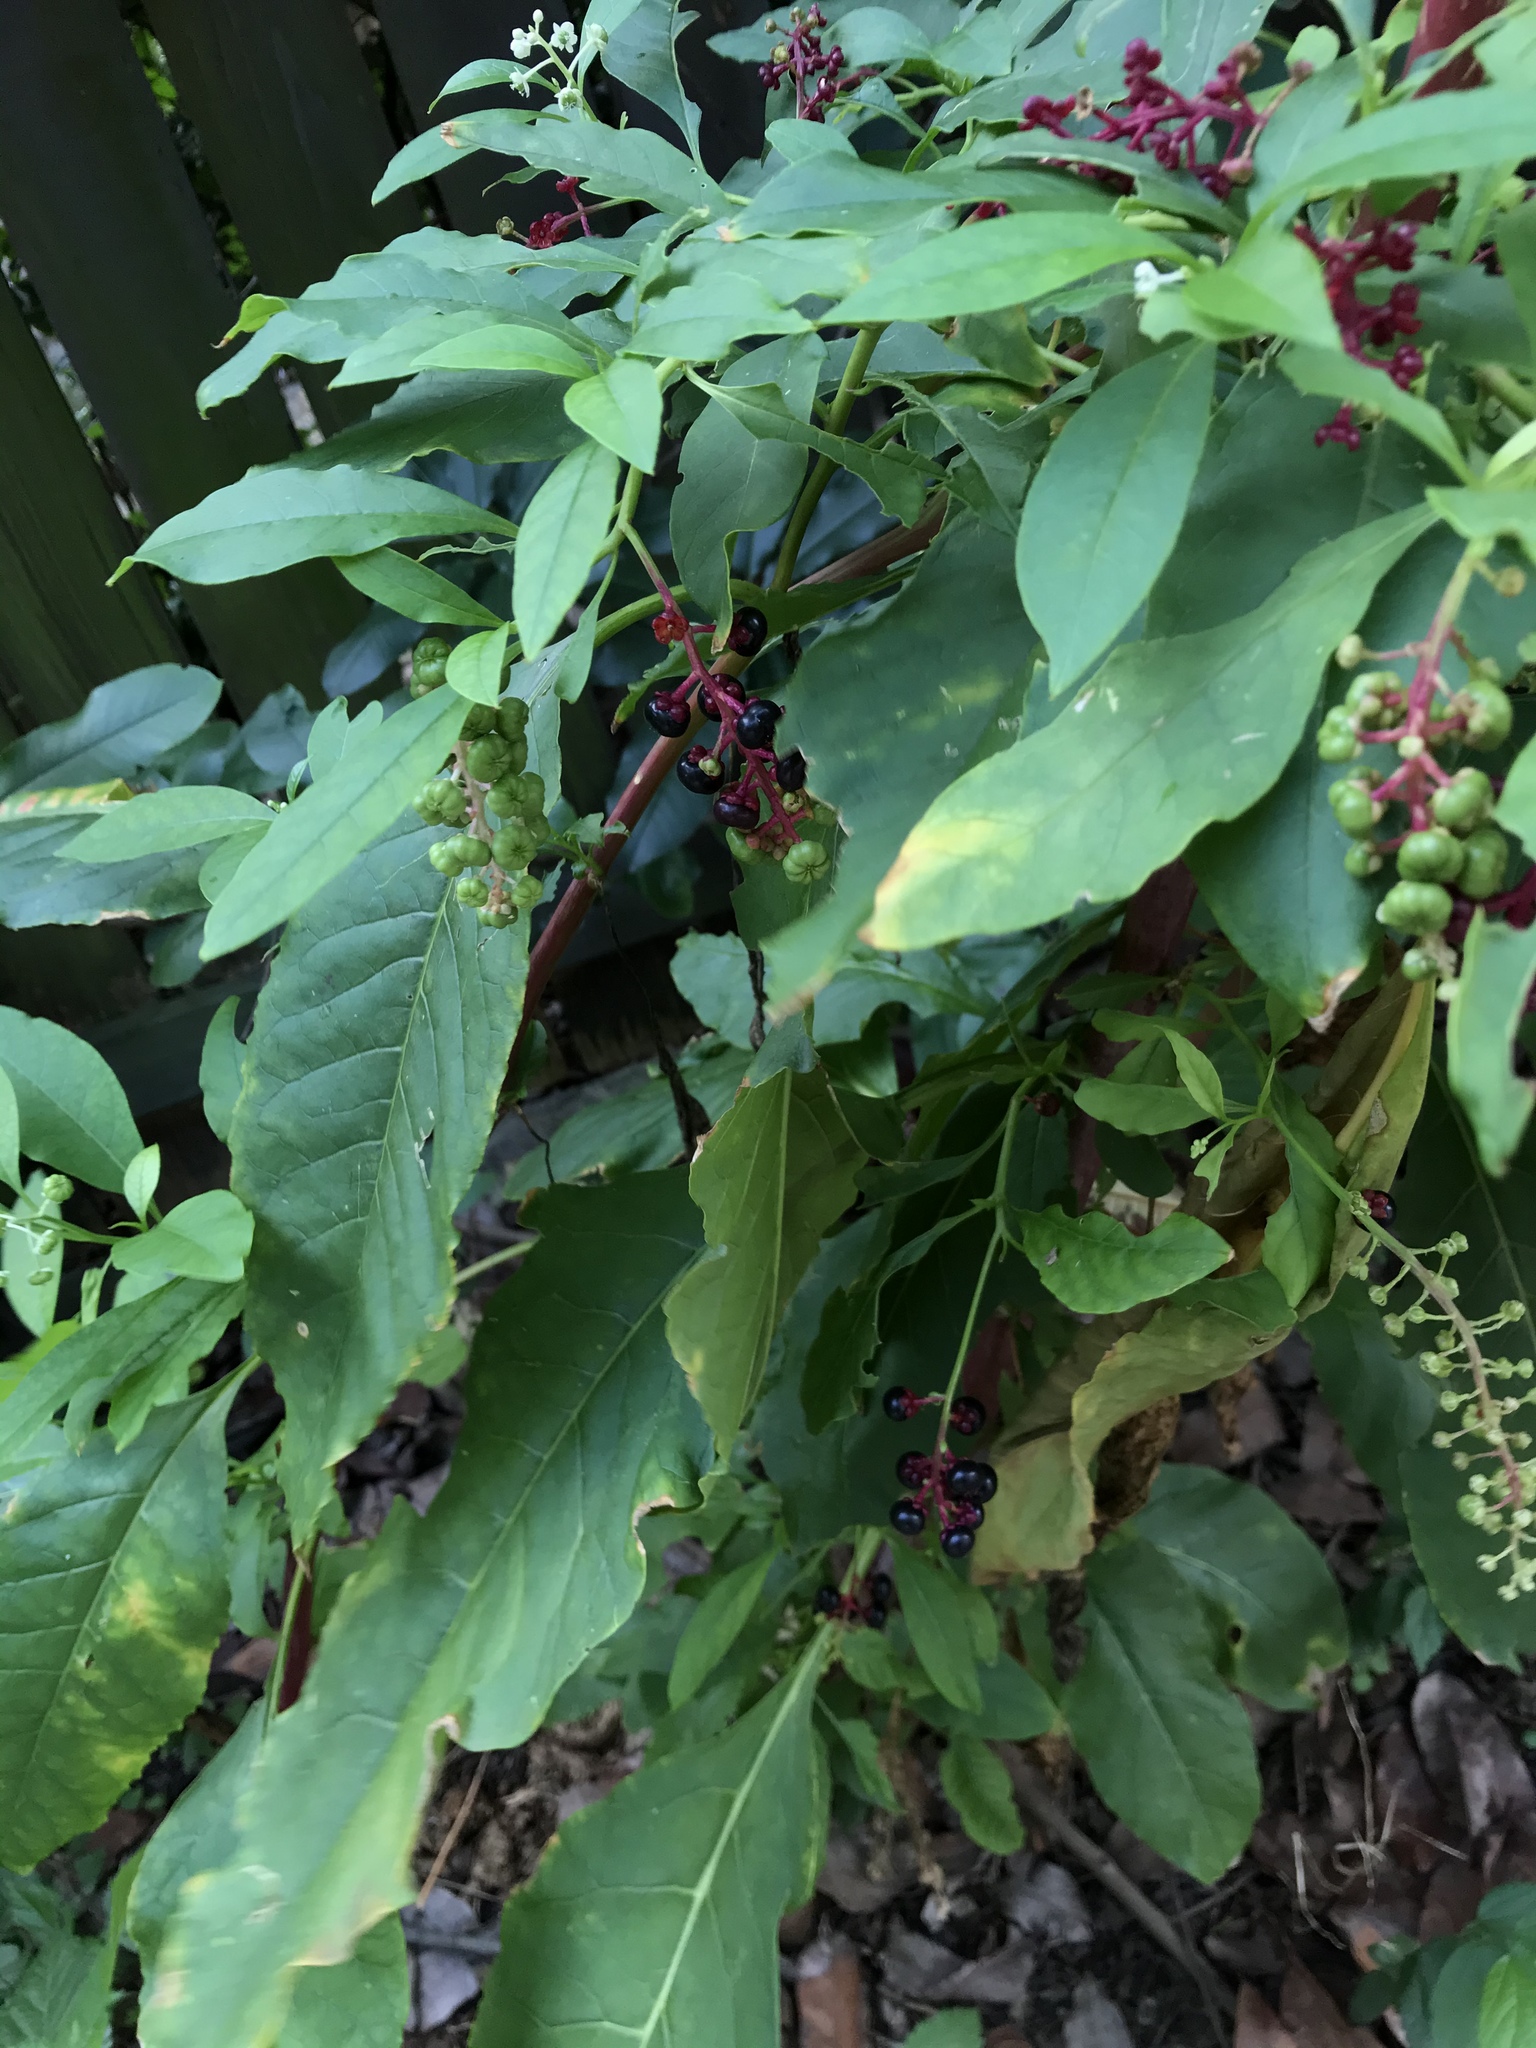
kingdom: Plantae
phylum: Tracheophyta
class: Magnoliopsida
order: Caryophyllales
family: Phytolaccaceae
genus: Phytolacca
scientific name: Phytolacca americana
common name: American pokeweed
